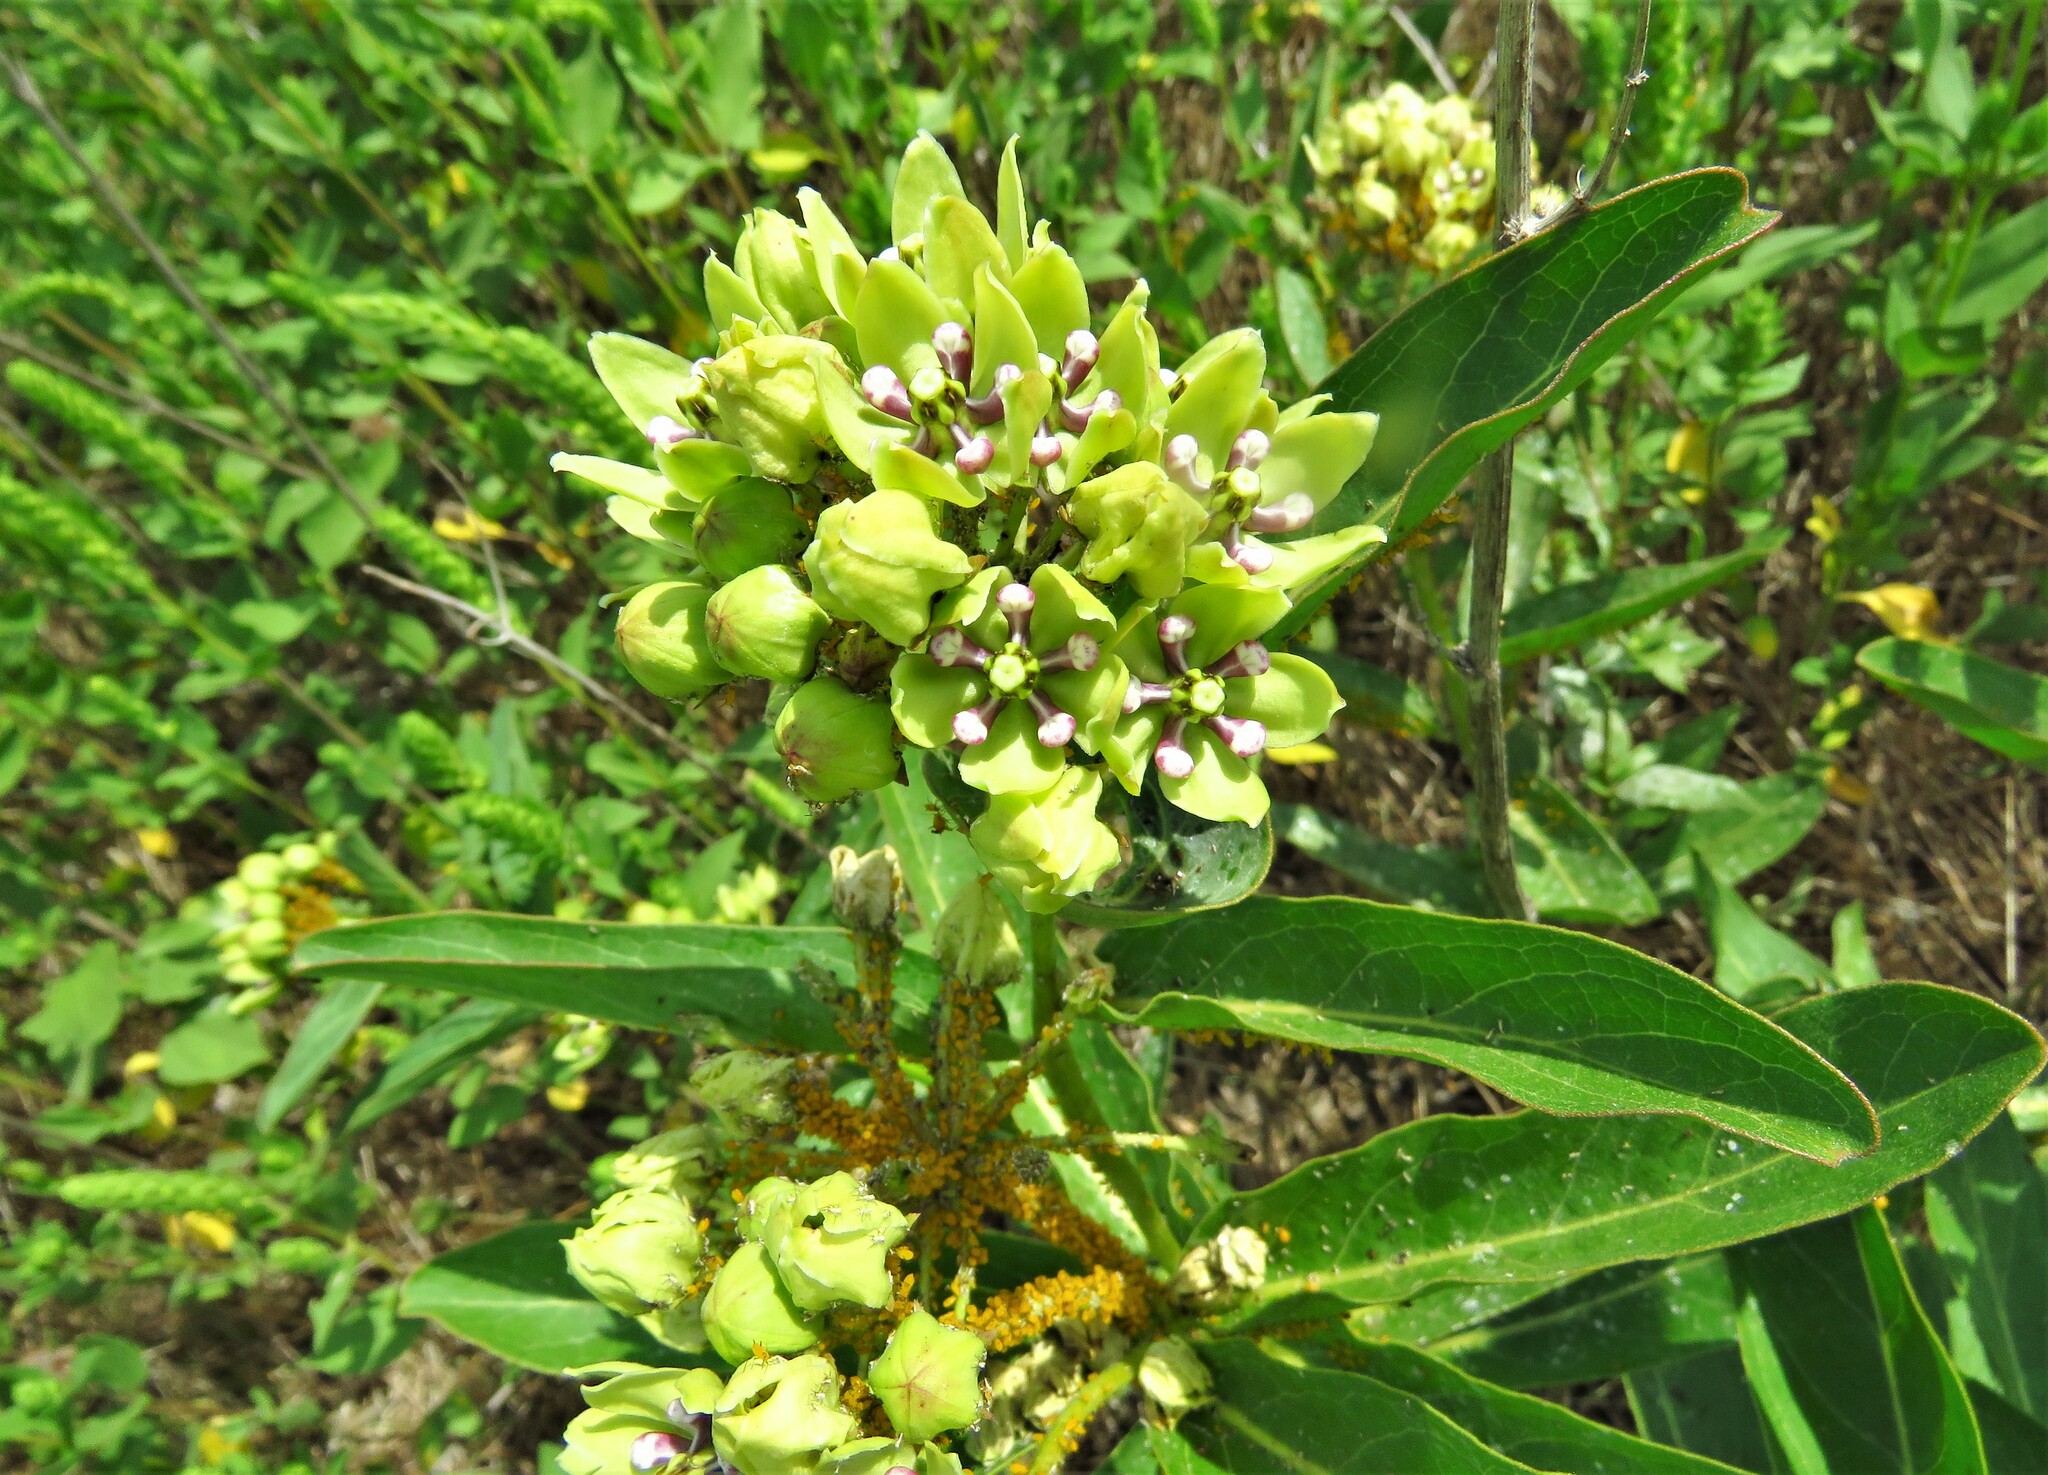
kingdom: Plantae
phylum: Tracheophyta
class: Magnoliopsida
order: Gentianales
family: Apocynaceae
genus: Asclepias
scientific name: Asclepias viridis
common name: Antelope-horns
